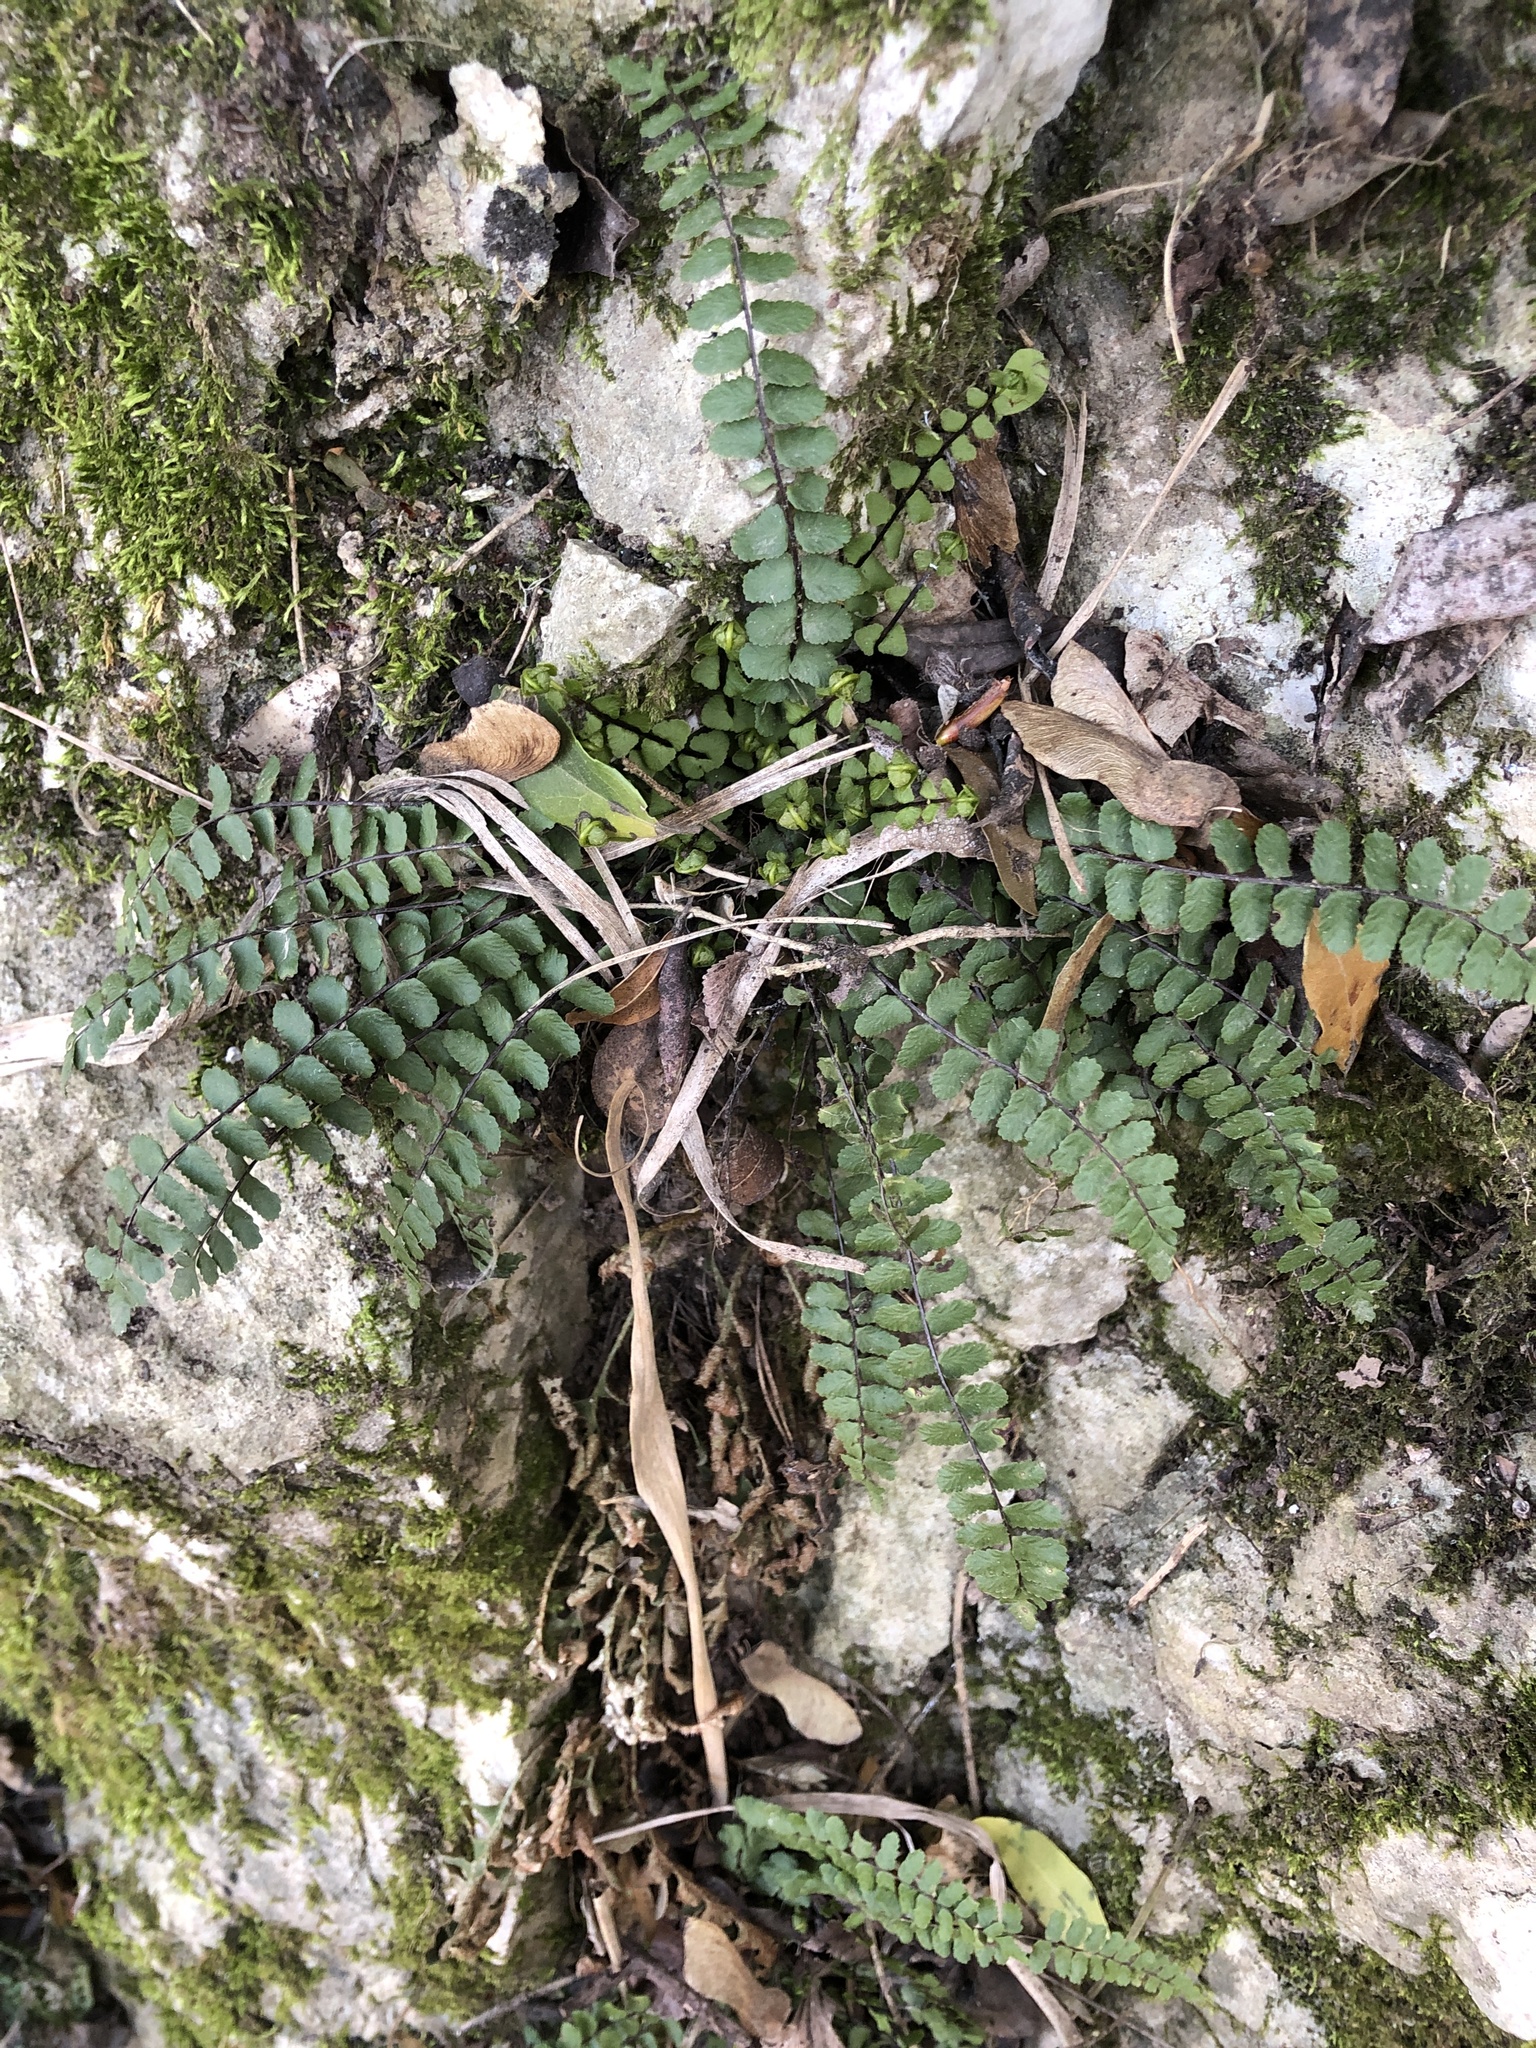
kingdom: Plantae
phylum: Tracheophyta
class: Polypodiopsida
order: Polypodiales
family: Aspleniaceae
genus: Asplenium
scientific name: Asplenium trichomanes
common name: Maidenhair spleenwort
